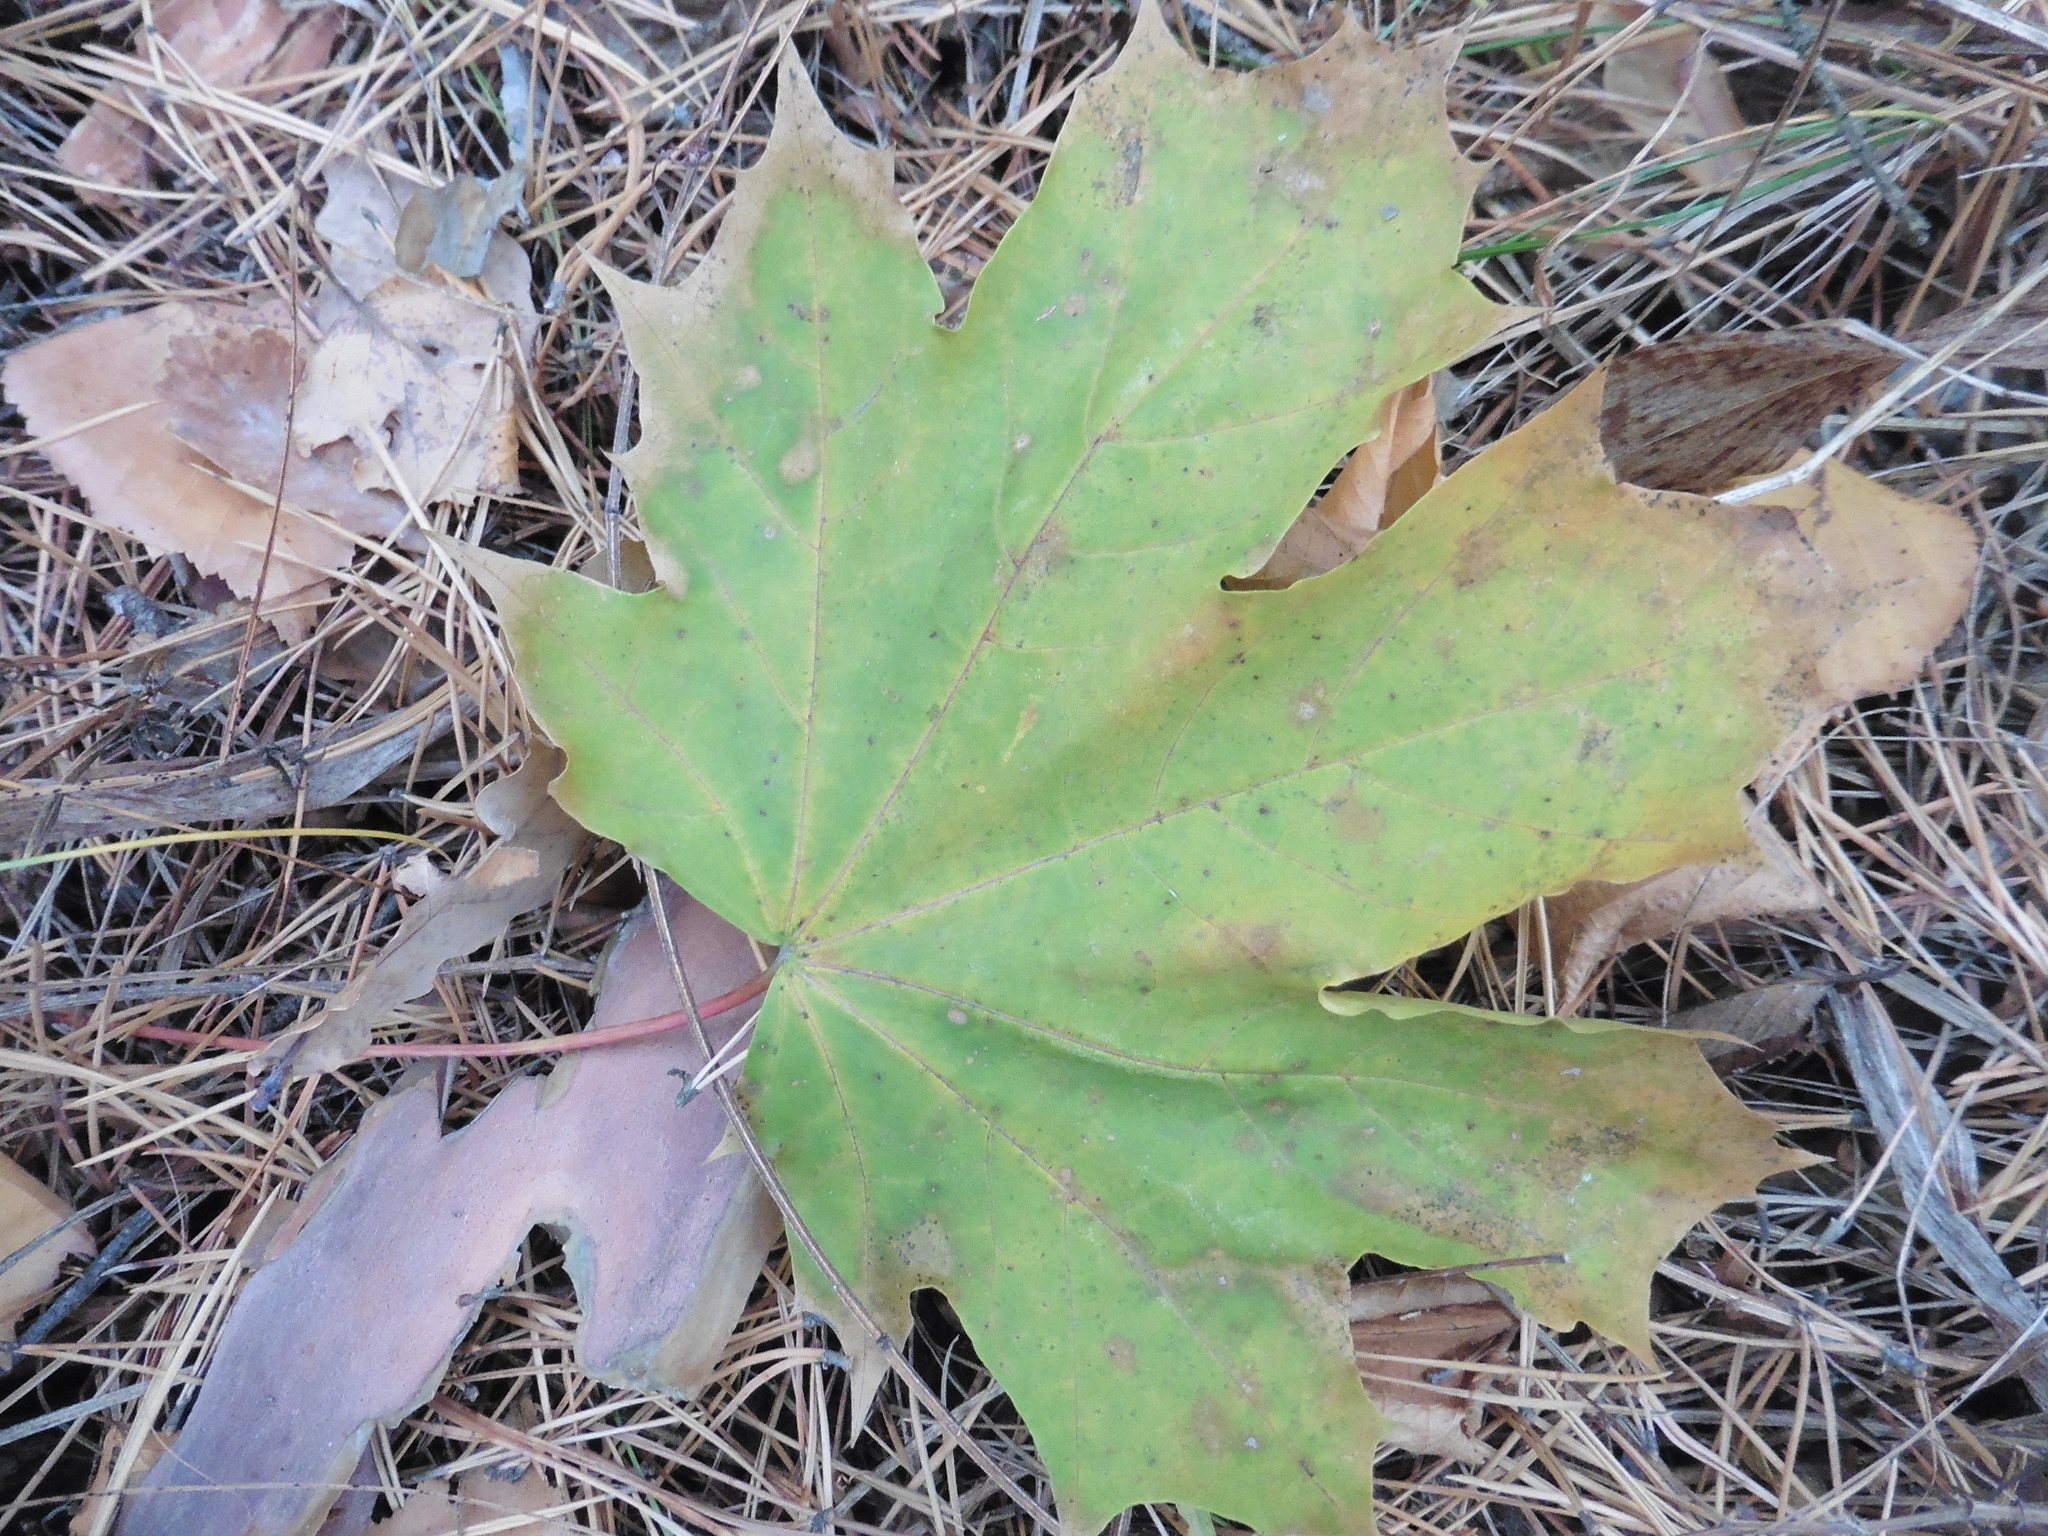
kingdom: Plantae
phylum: Tracheophyta
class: Magnoliopsida
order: Sapindales
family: Sapindaceae
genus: Acer
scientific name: Acer platanoides
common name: Norway maple
